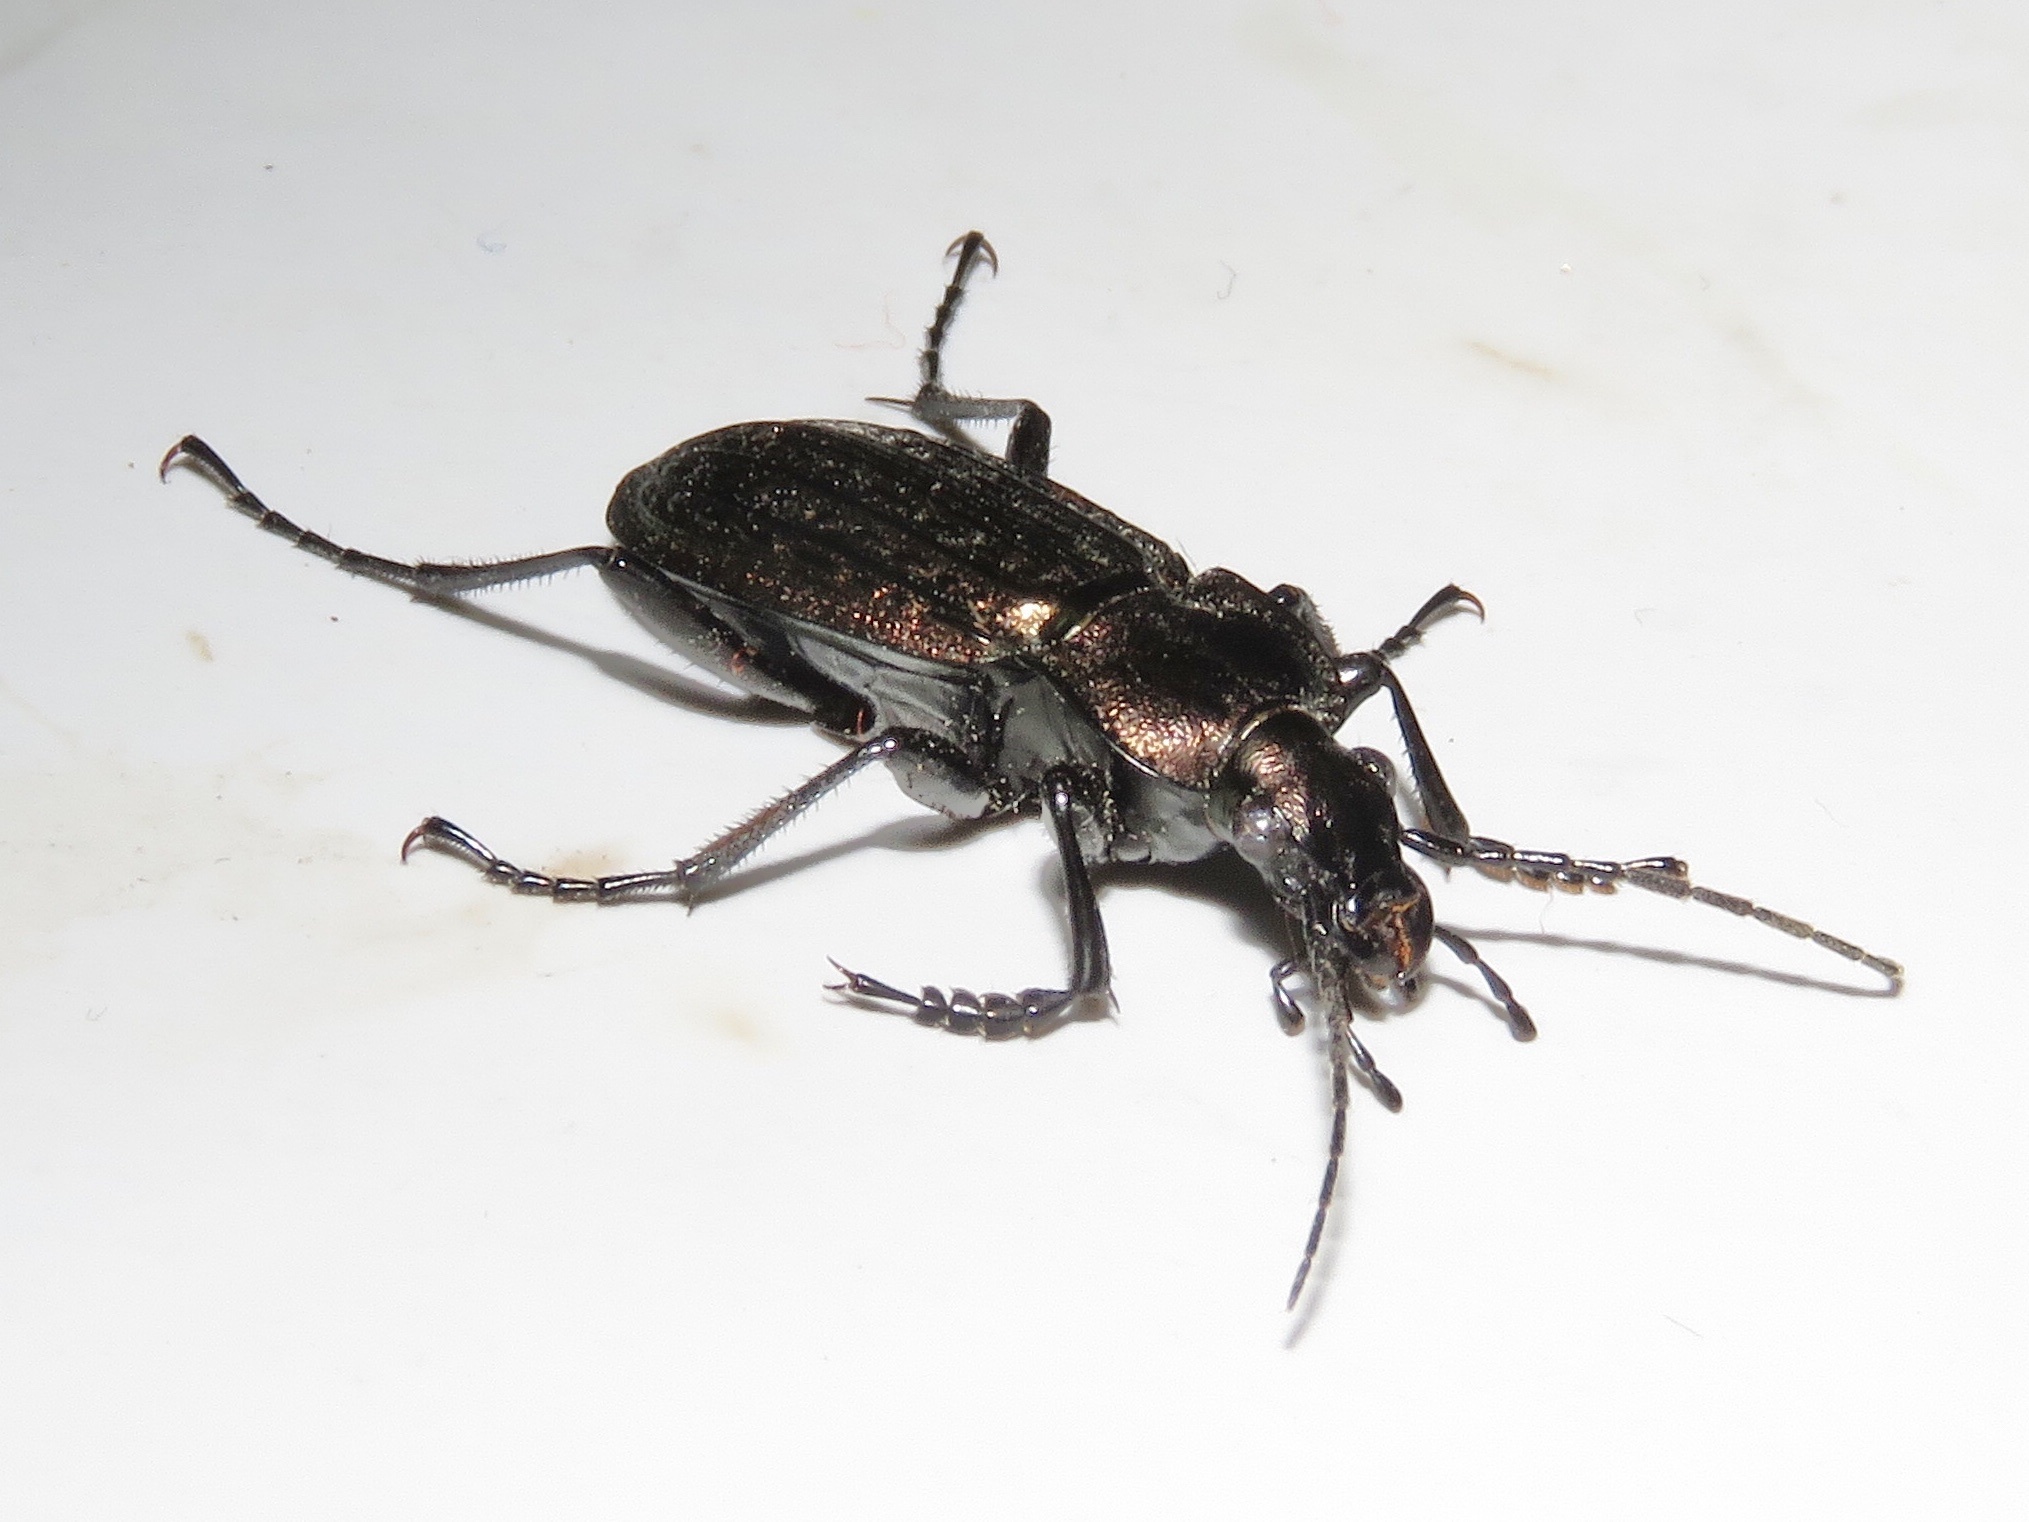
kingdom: Animalia
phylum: Arthropoda
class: Insecta
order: Coleoptera
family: Carabidae
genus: Carabus
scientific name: Carabus granulatus
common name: Granulate ground beetle
